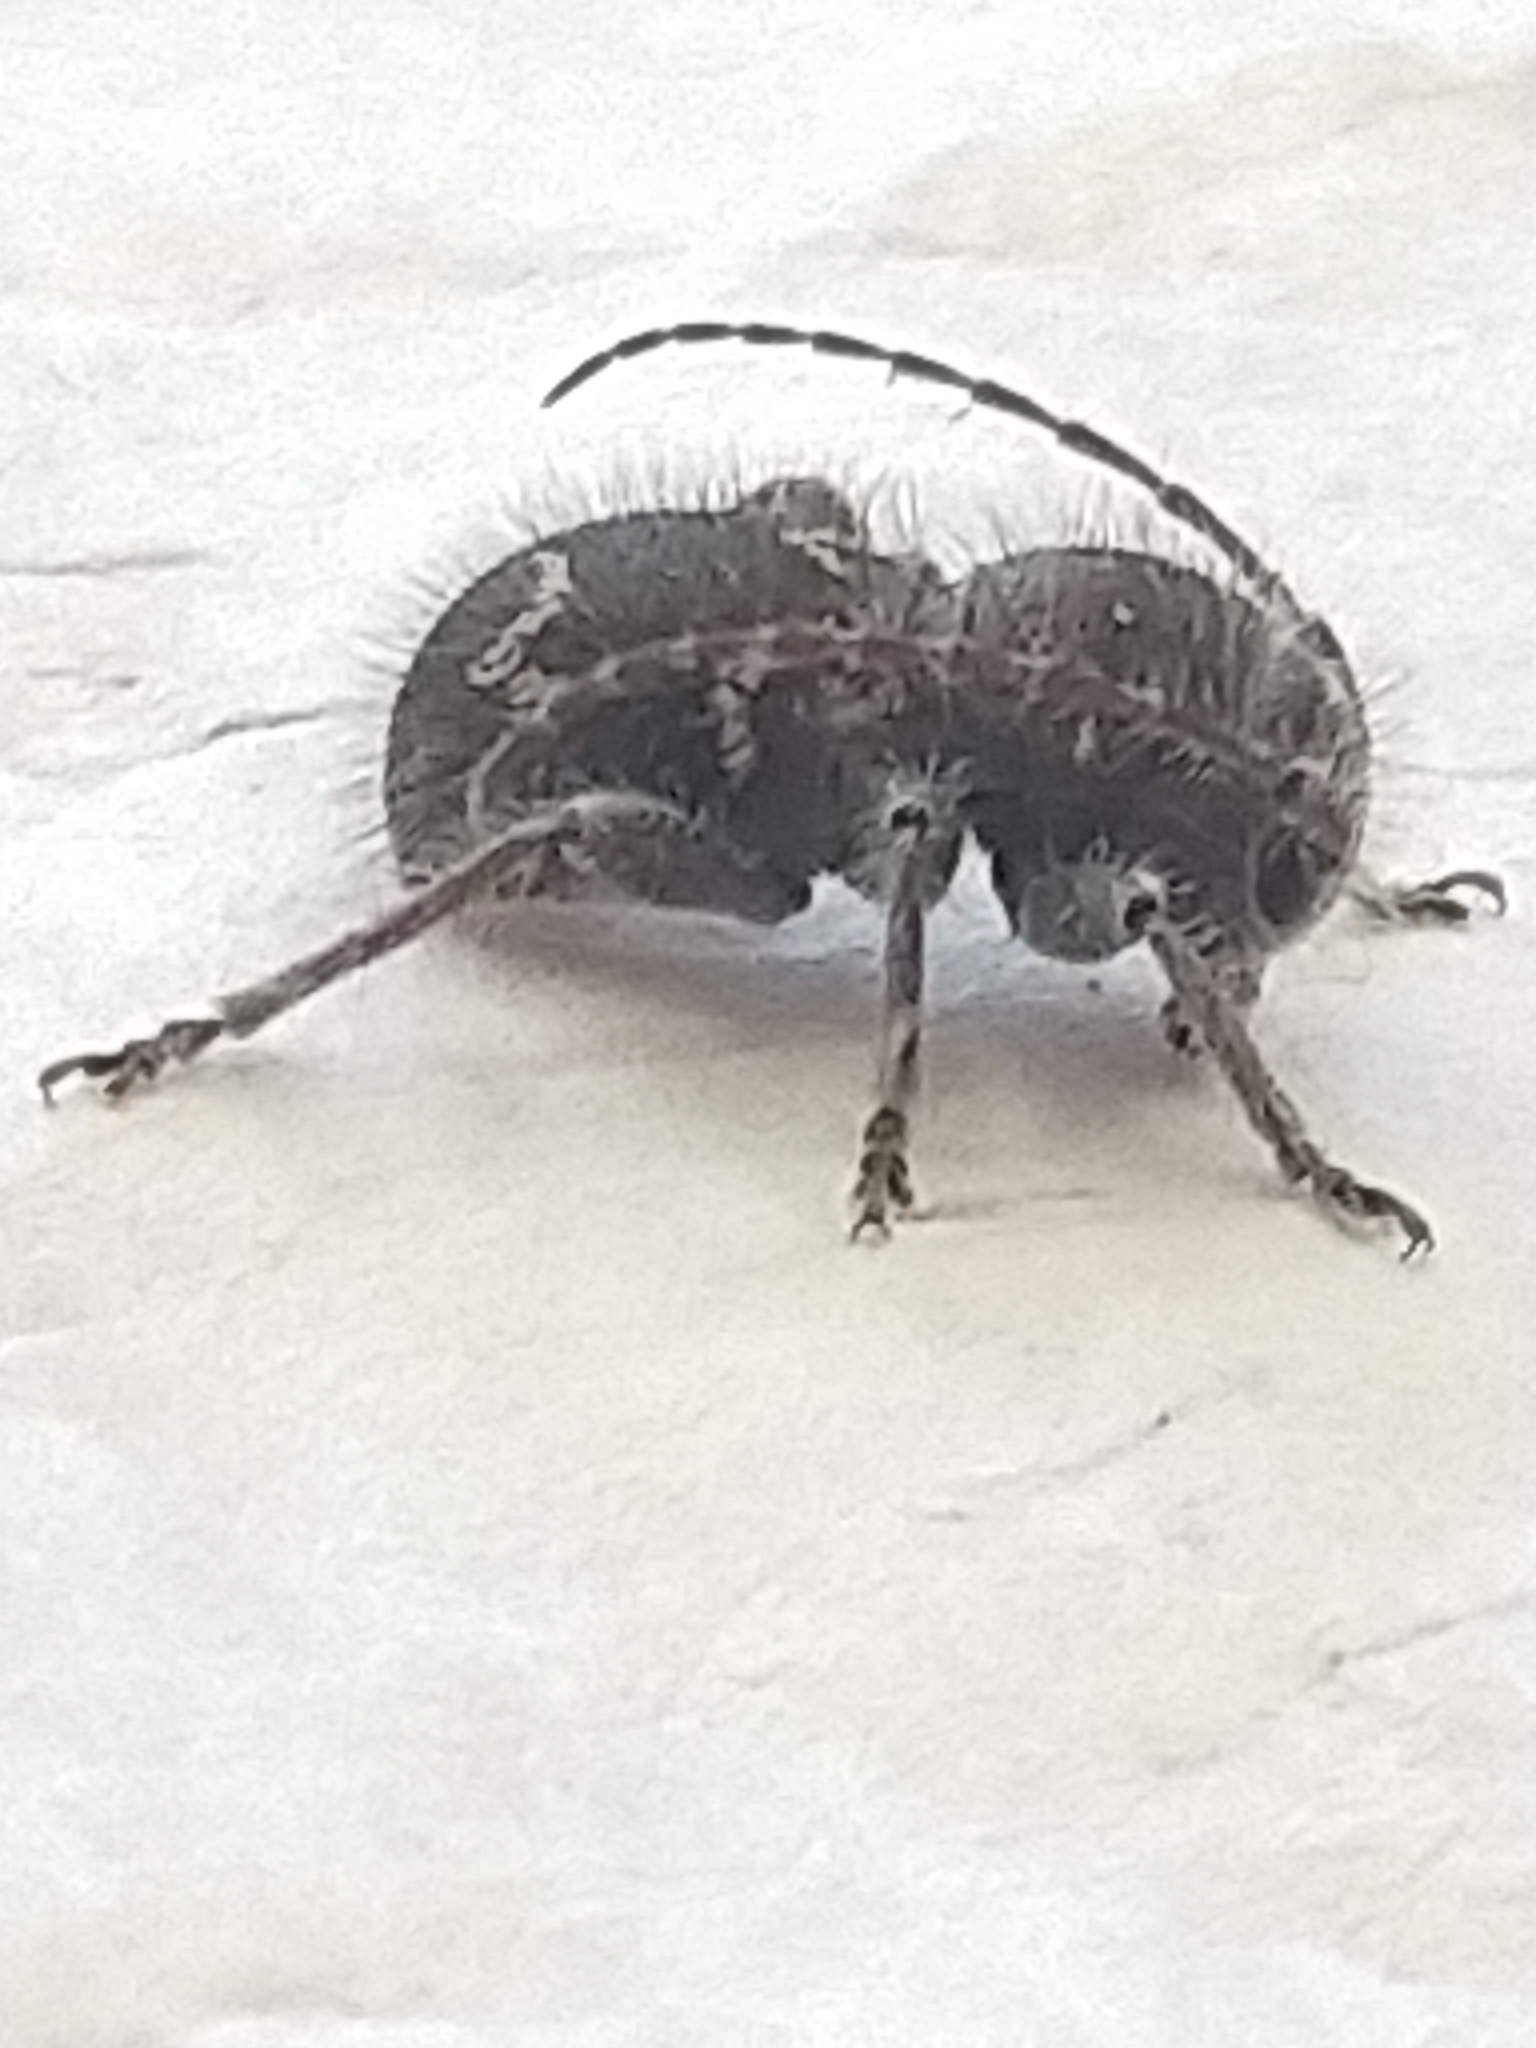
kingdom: Animalia
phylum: Arthropoda
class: Insecta
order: Coleoptera
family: Cerambycidae
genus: Ipochus
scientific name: Ipochus fasciatus
